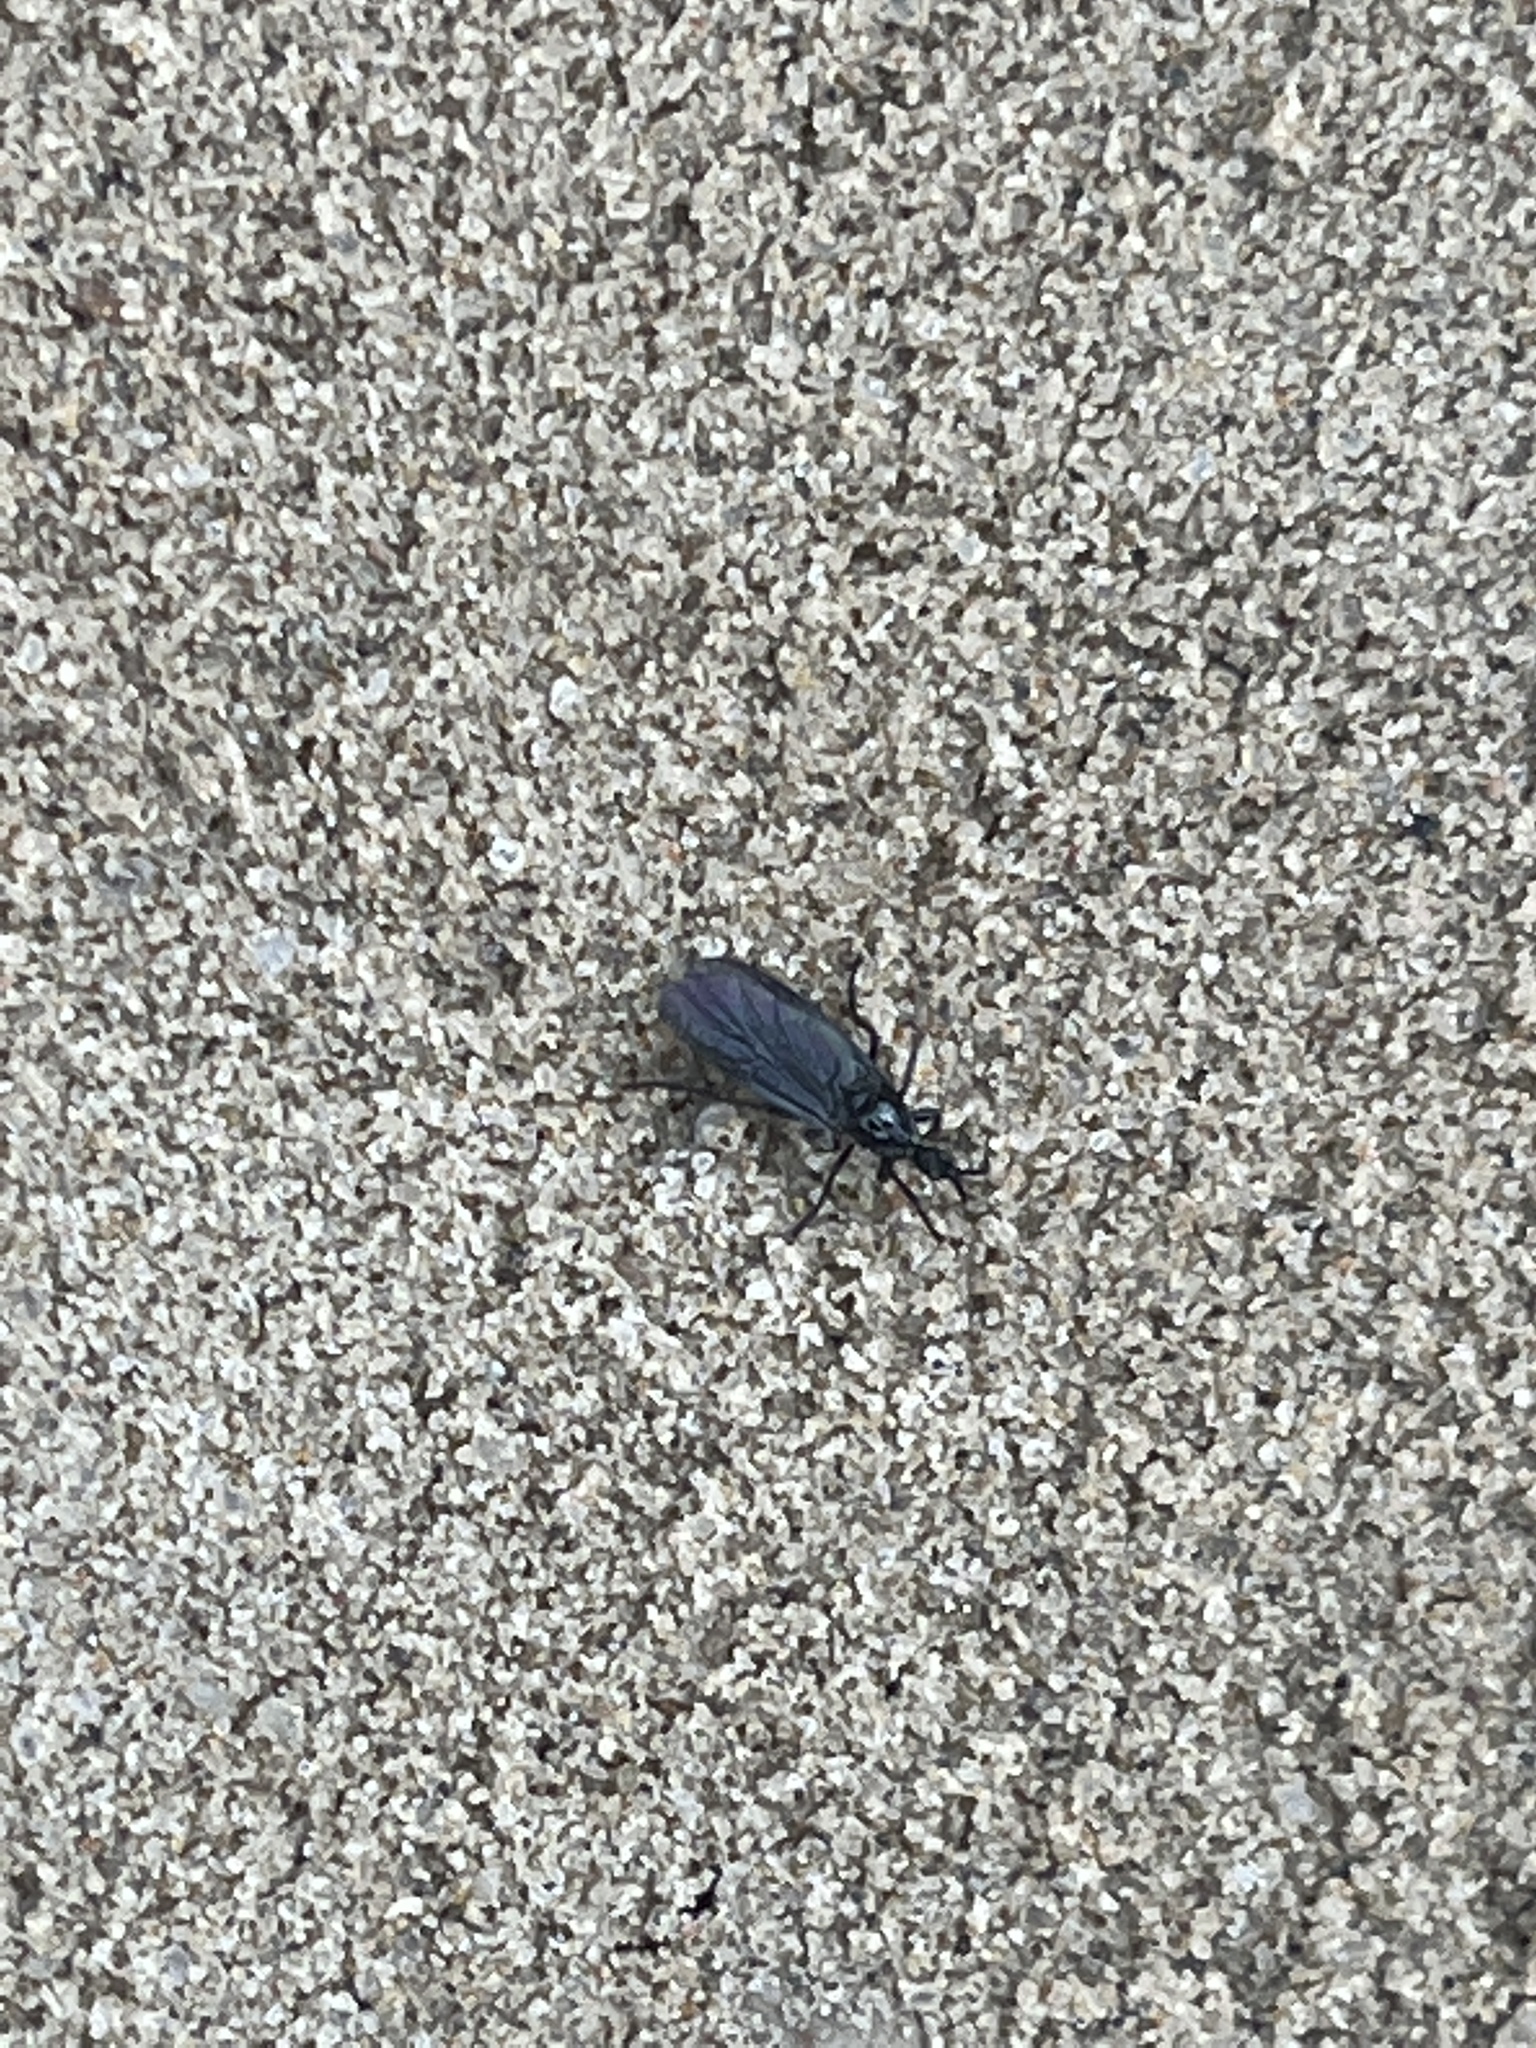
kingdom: Animalia
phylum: Arthropoda
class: Insecta
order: Diptera
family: Bibionidae
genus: Dilophus
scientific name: Dilophus orbatus
